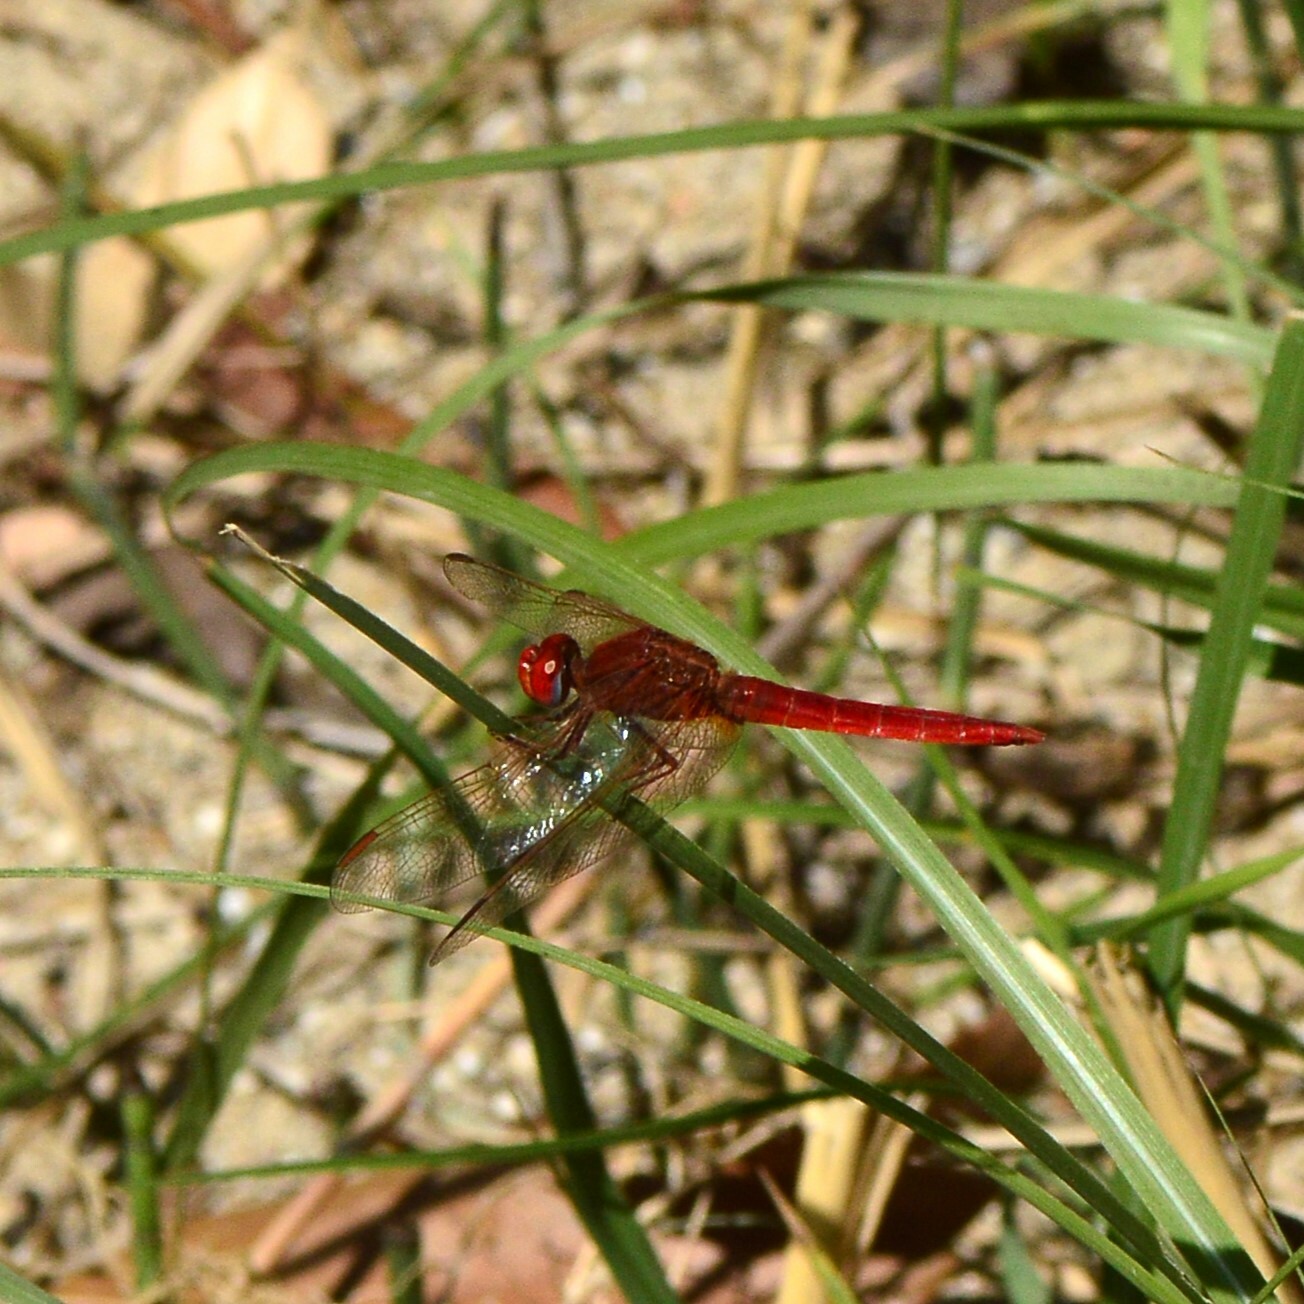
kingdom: Animalia
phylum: Arthropoda
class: Insecta
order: Odonata
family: Libellulidae
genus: Crocothemis
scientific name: Crocothemis servilia
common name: Scarlet skimmer
